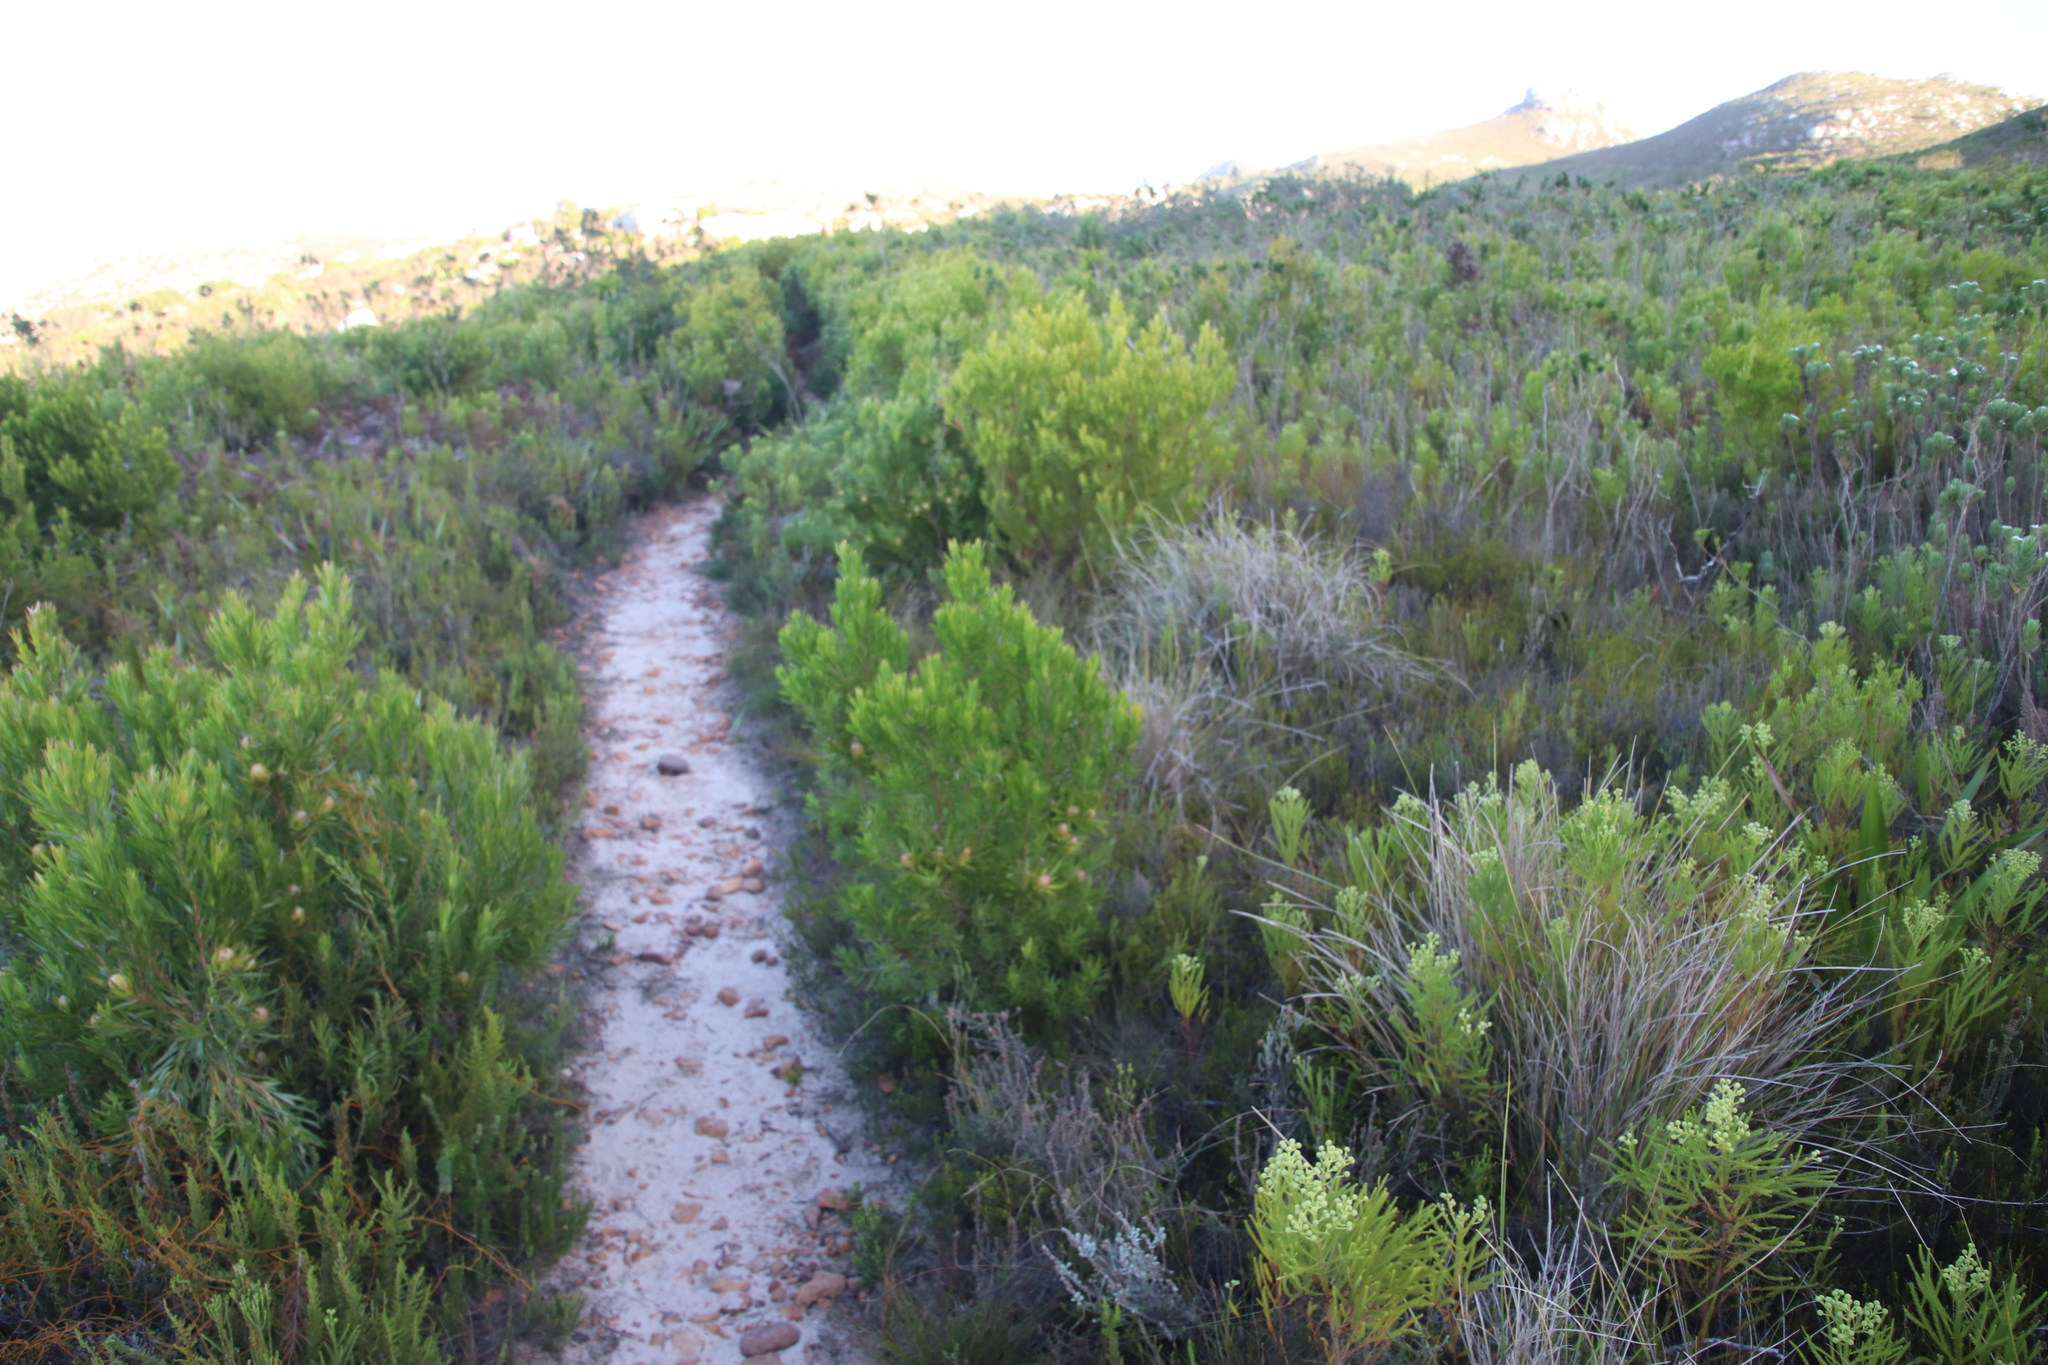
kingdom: Plantae
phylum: Tracheophyta
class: Magnoliopsida
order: Proteales
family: Proteaceae
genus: Leucadendron
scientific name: Leucadendron xanthoconus
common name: Sickle-leaf conebush
